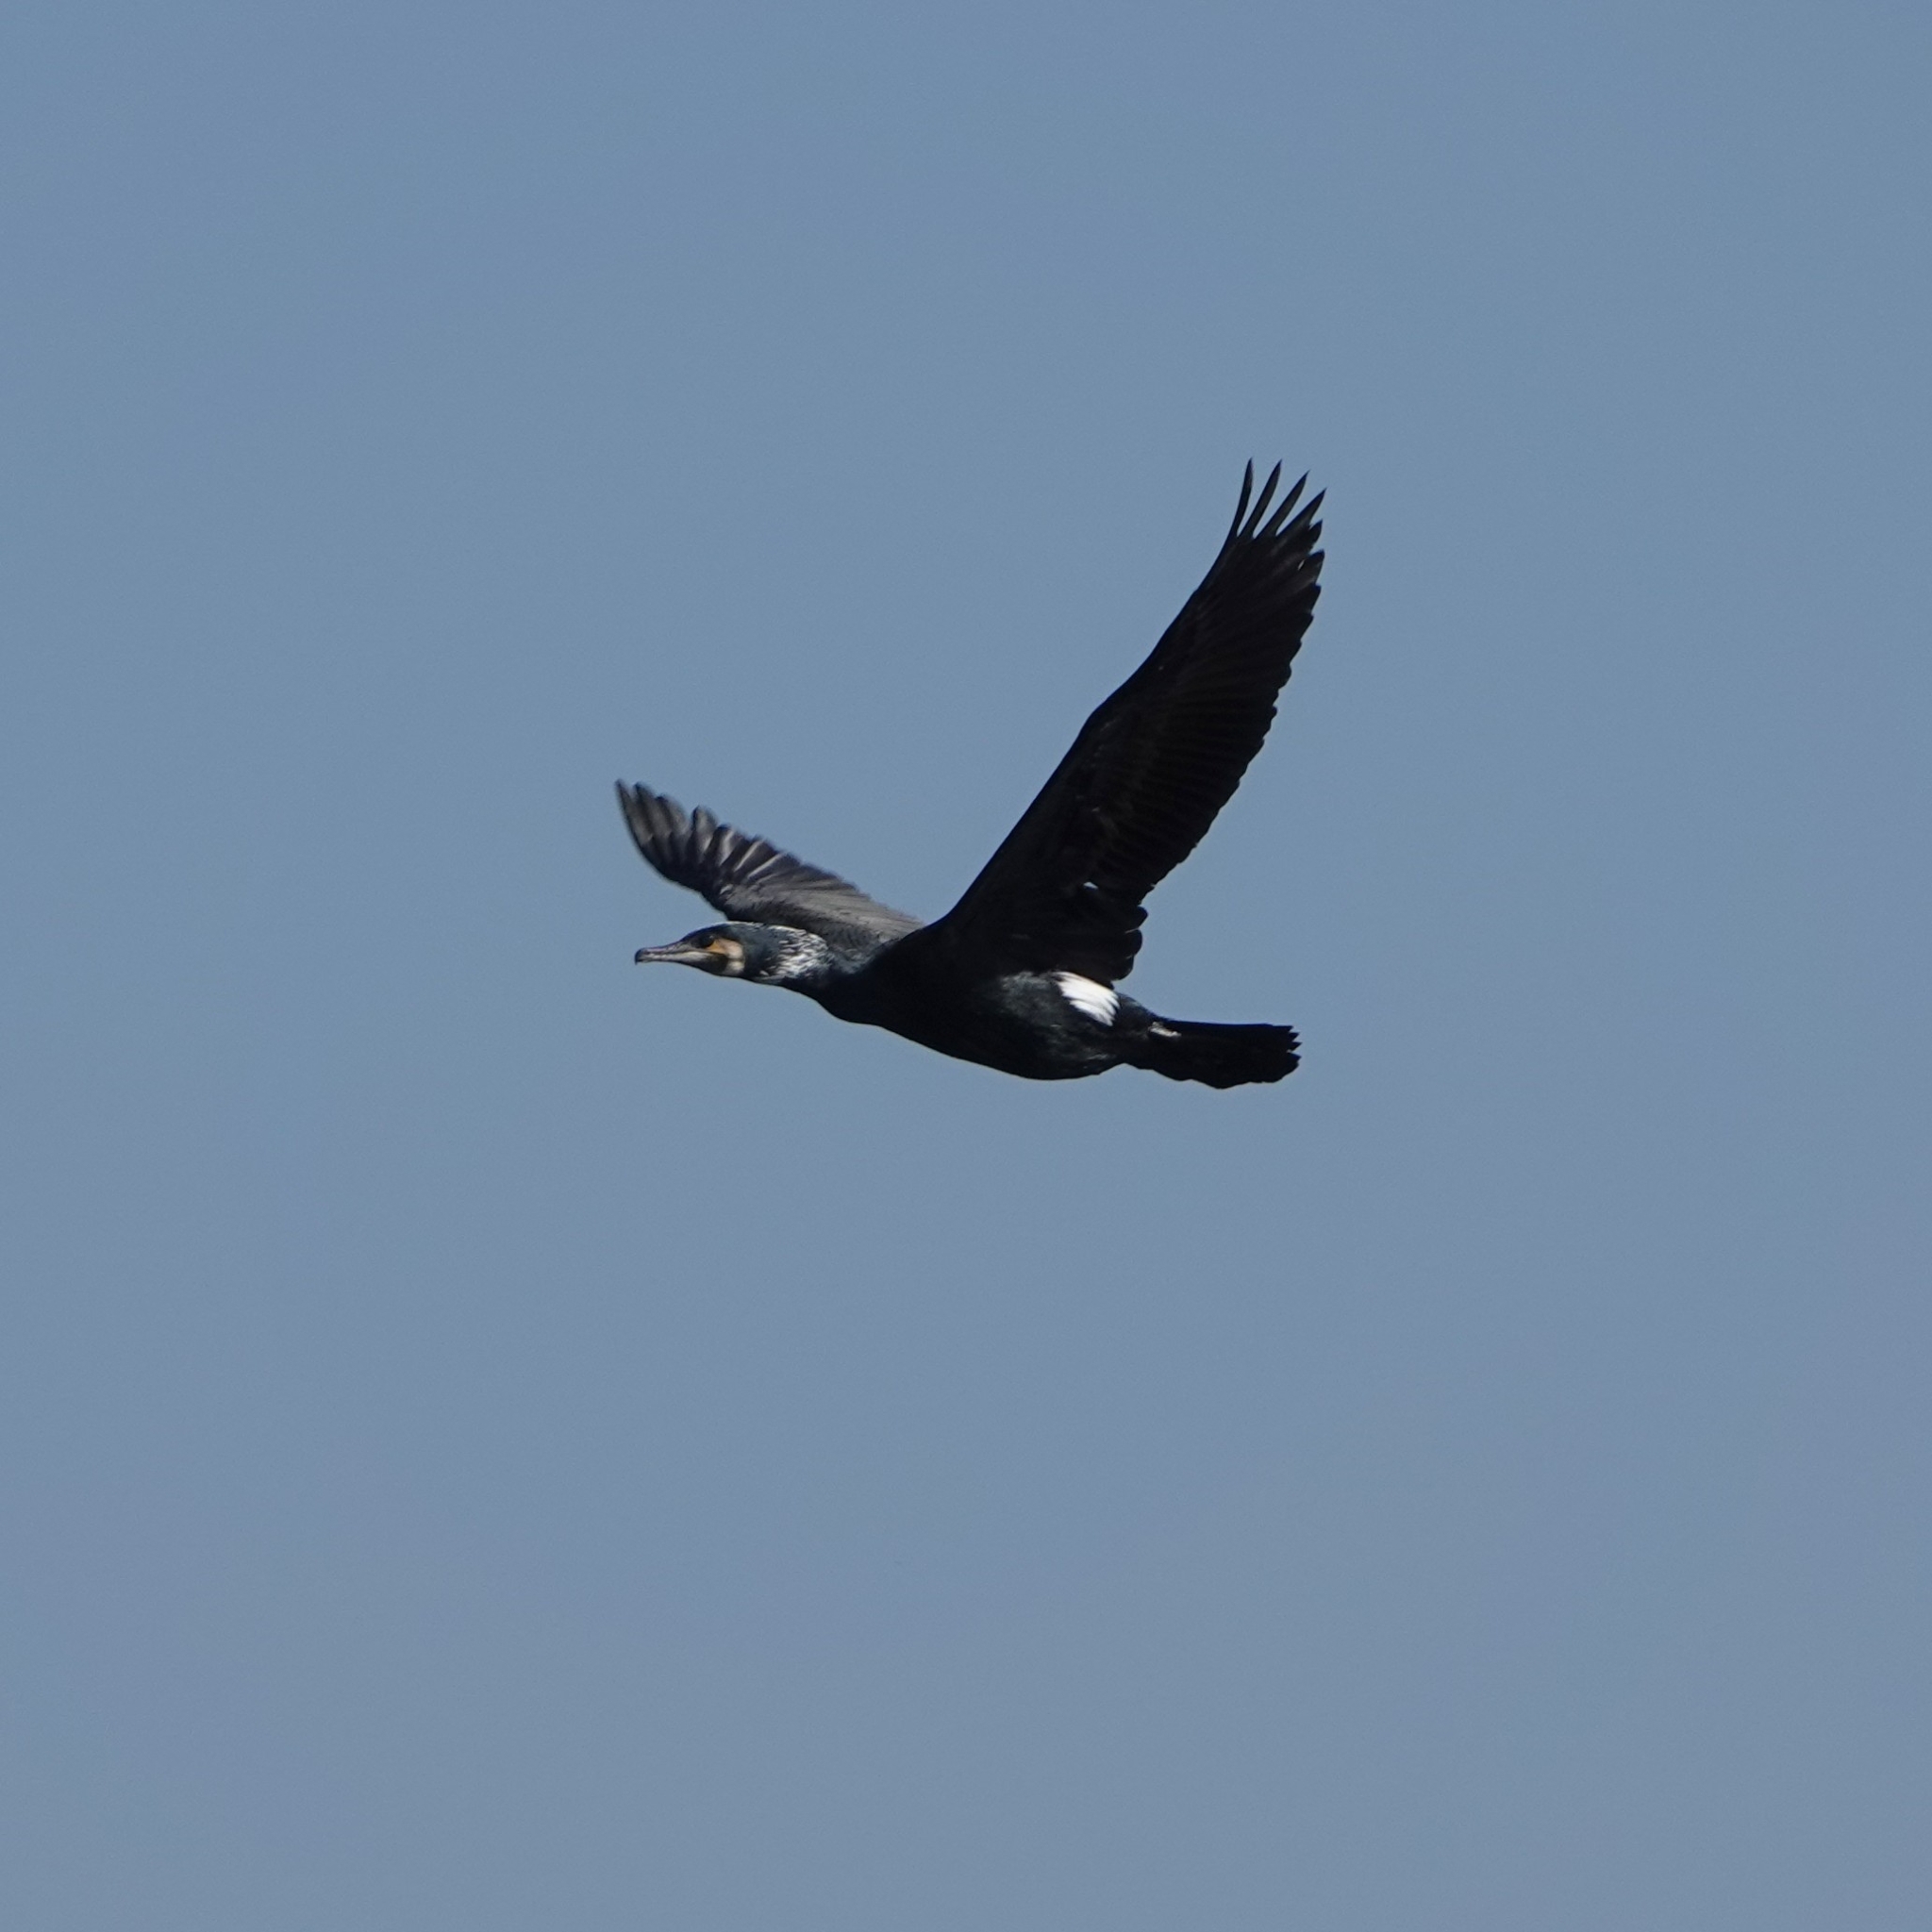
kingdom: Animalia
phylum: Chordata
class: Aves
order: Suliformes
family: Phalacrocoracidae
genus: Phalacrocorax
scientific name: Phalacrocorax carbo
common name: Great cormorant
